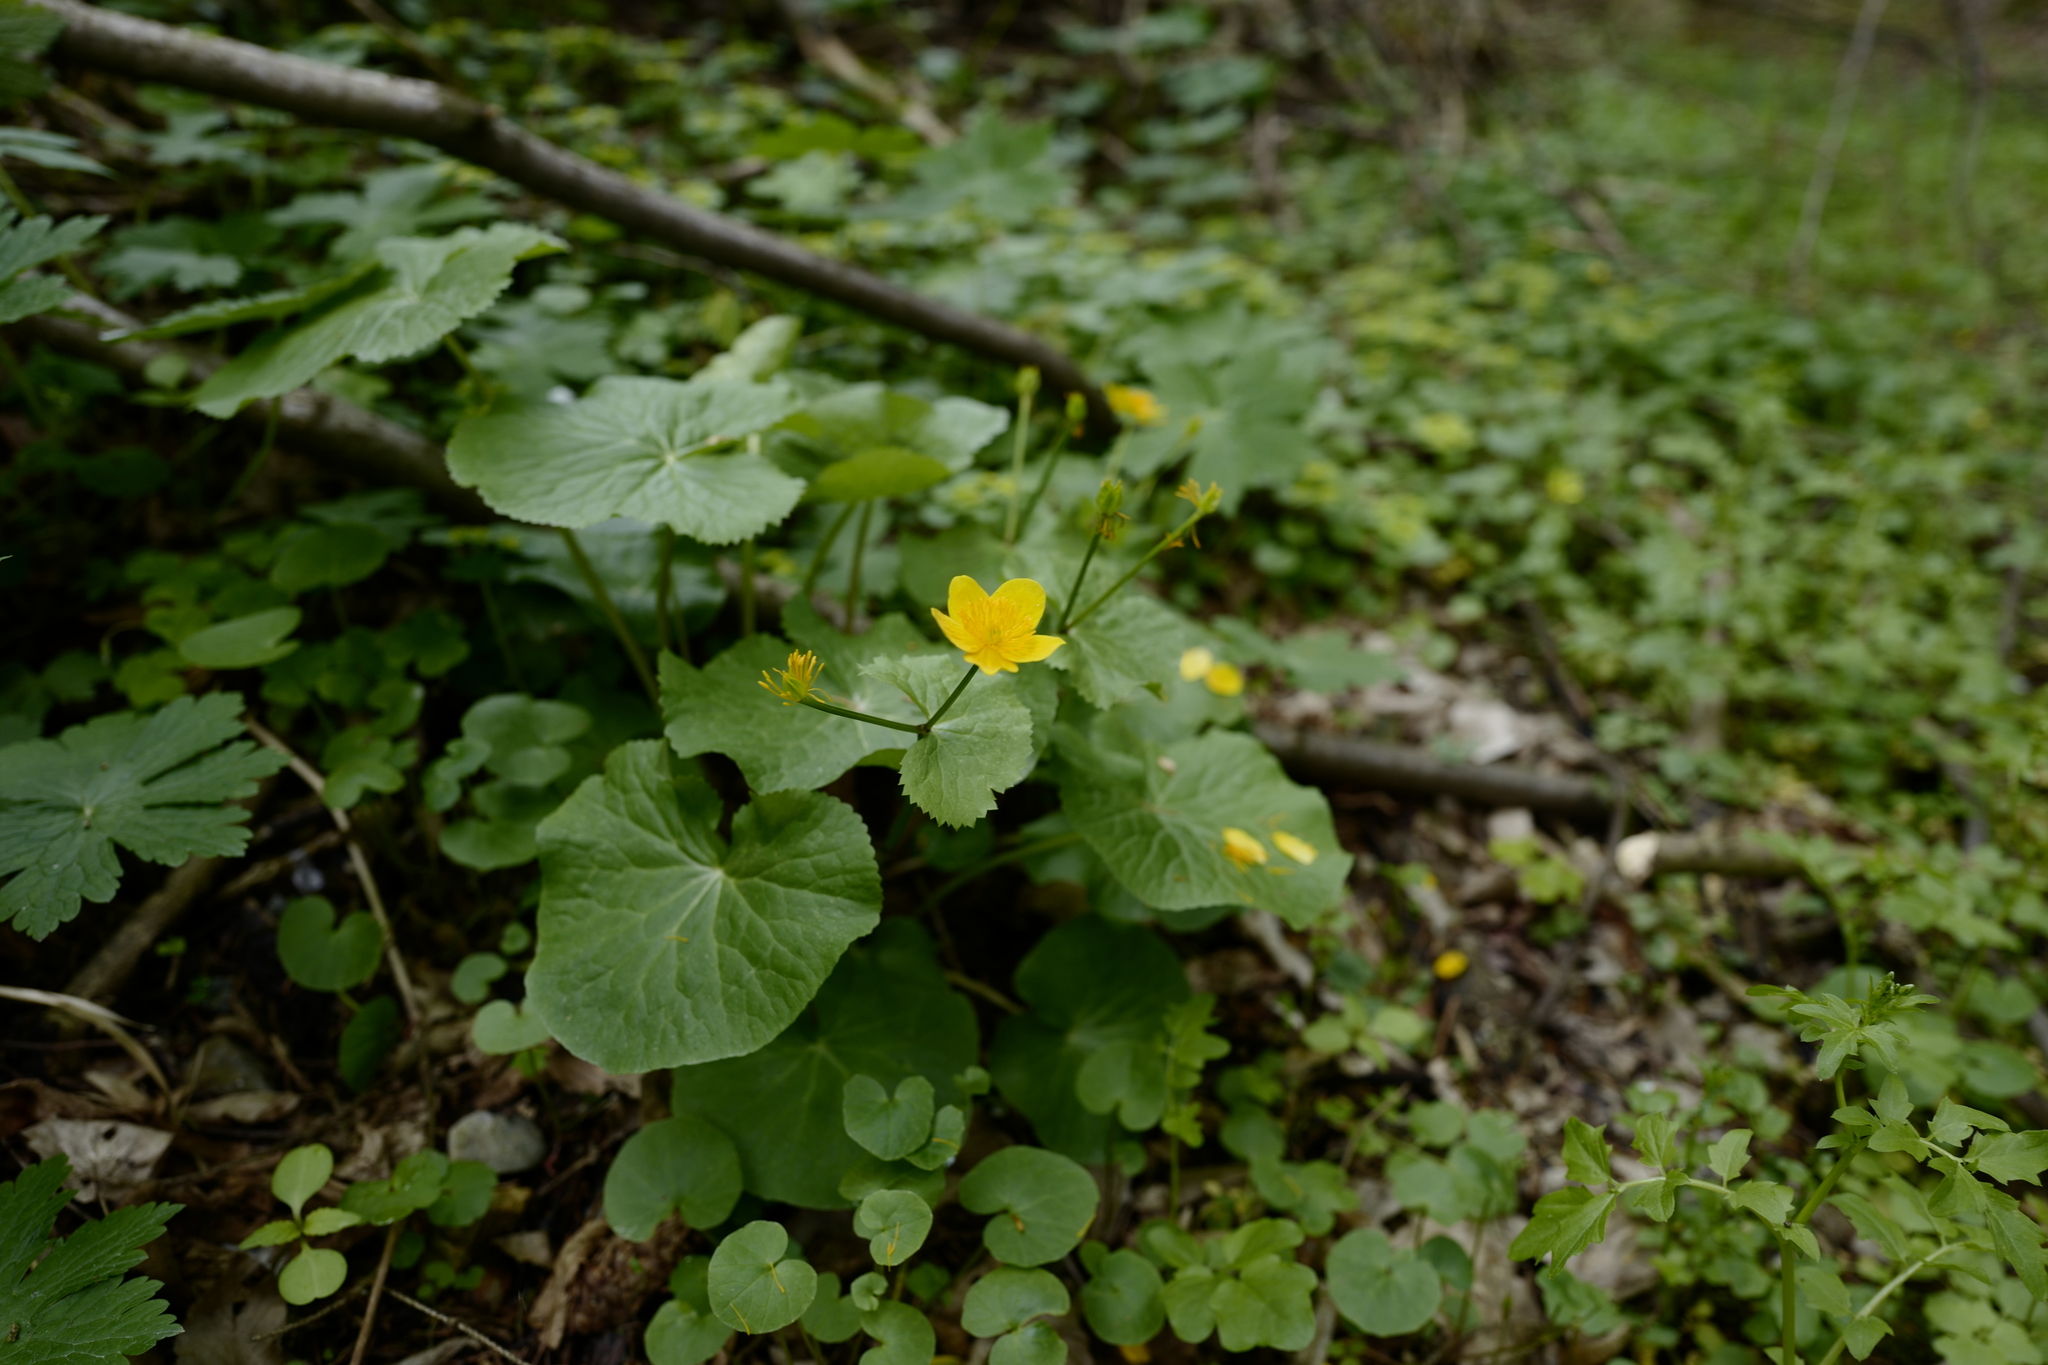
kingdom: Plantae
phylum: Tracheophyta
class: Magnoliopsida
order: Ranunculales
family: Ranunculaceae
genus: Caltha
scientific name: Caltha palustris
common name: Marsh marigold
